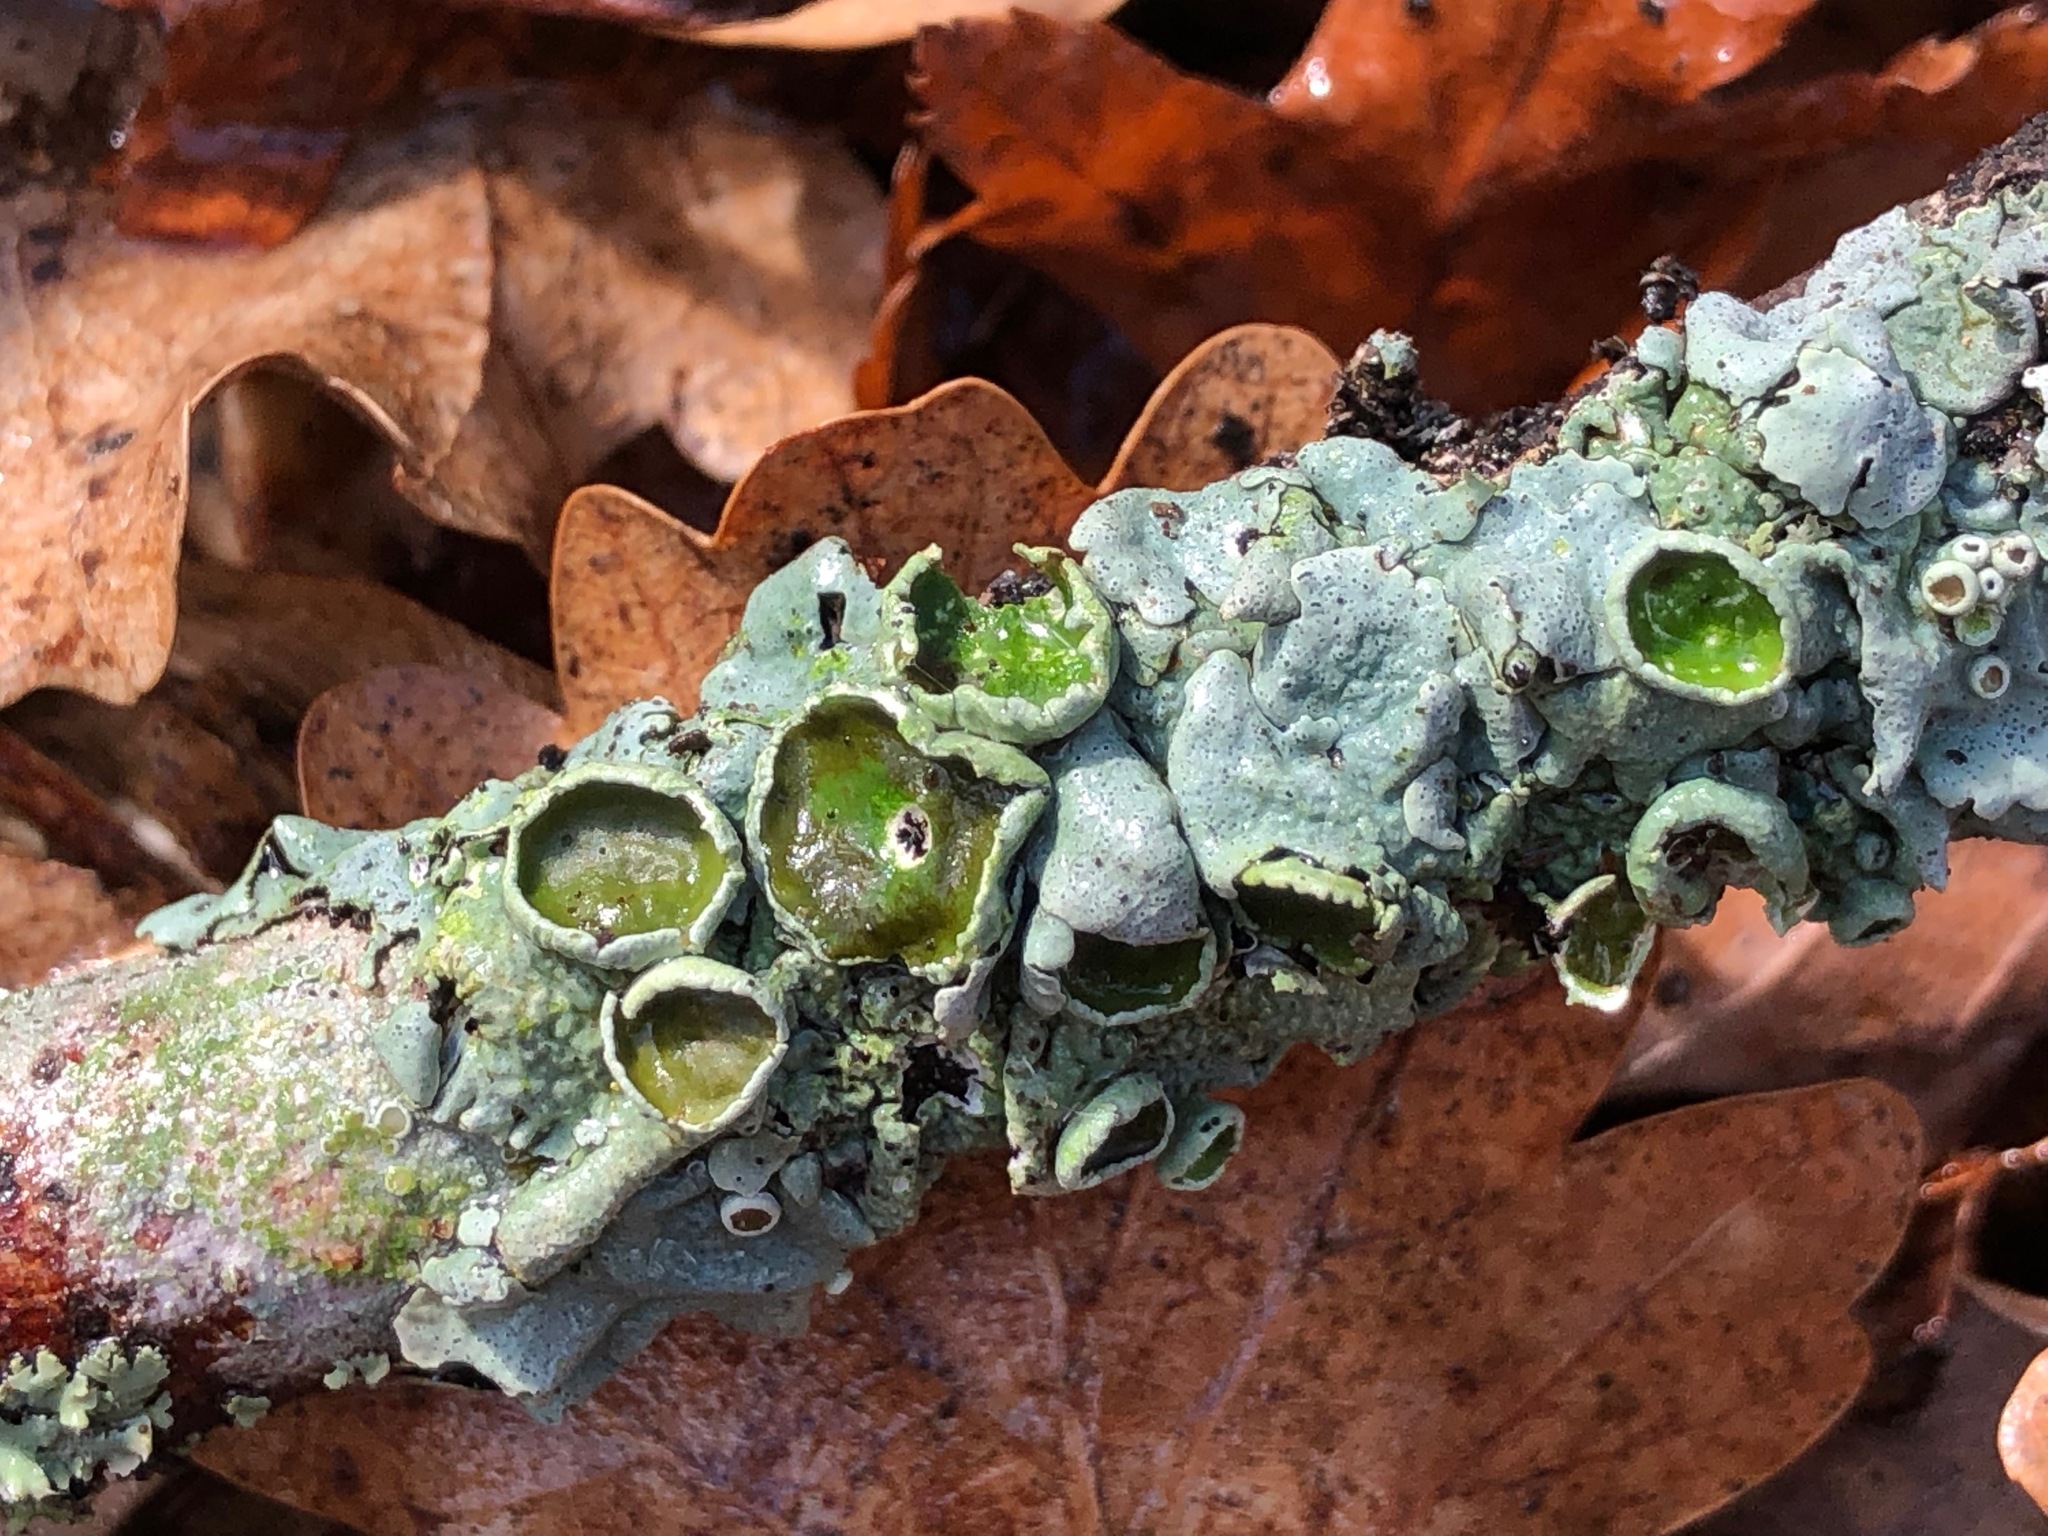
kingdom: Fungi
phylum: Ascomycota
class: Lecanoromycetes
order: Lecanorales
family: Parmeliaceae
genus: Parmelina
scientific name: Parmelina quercina
